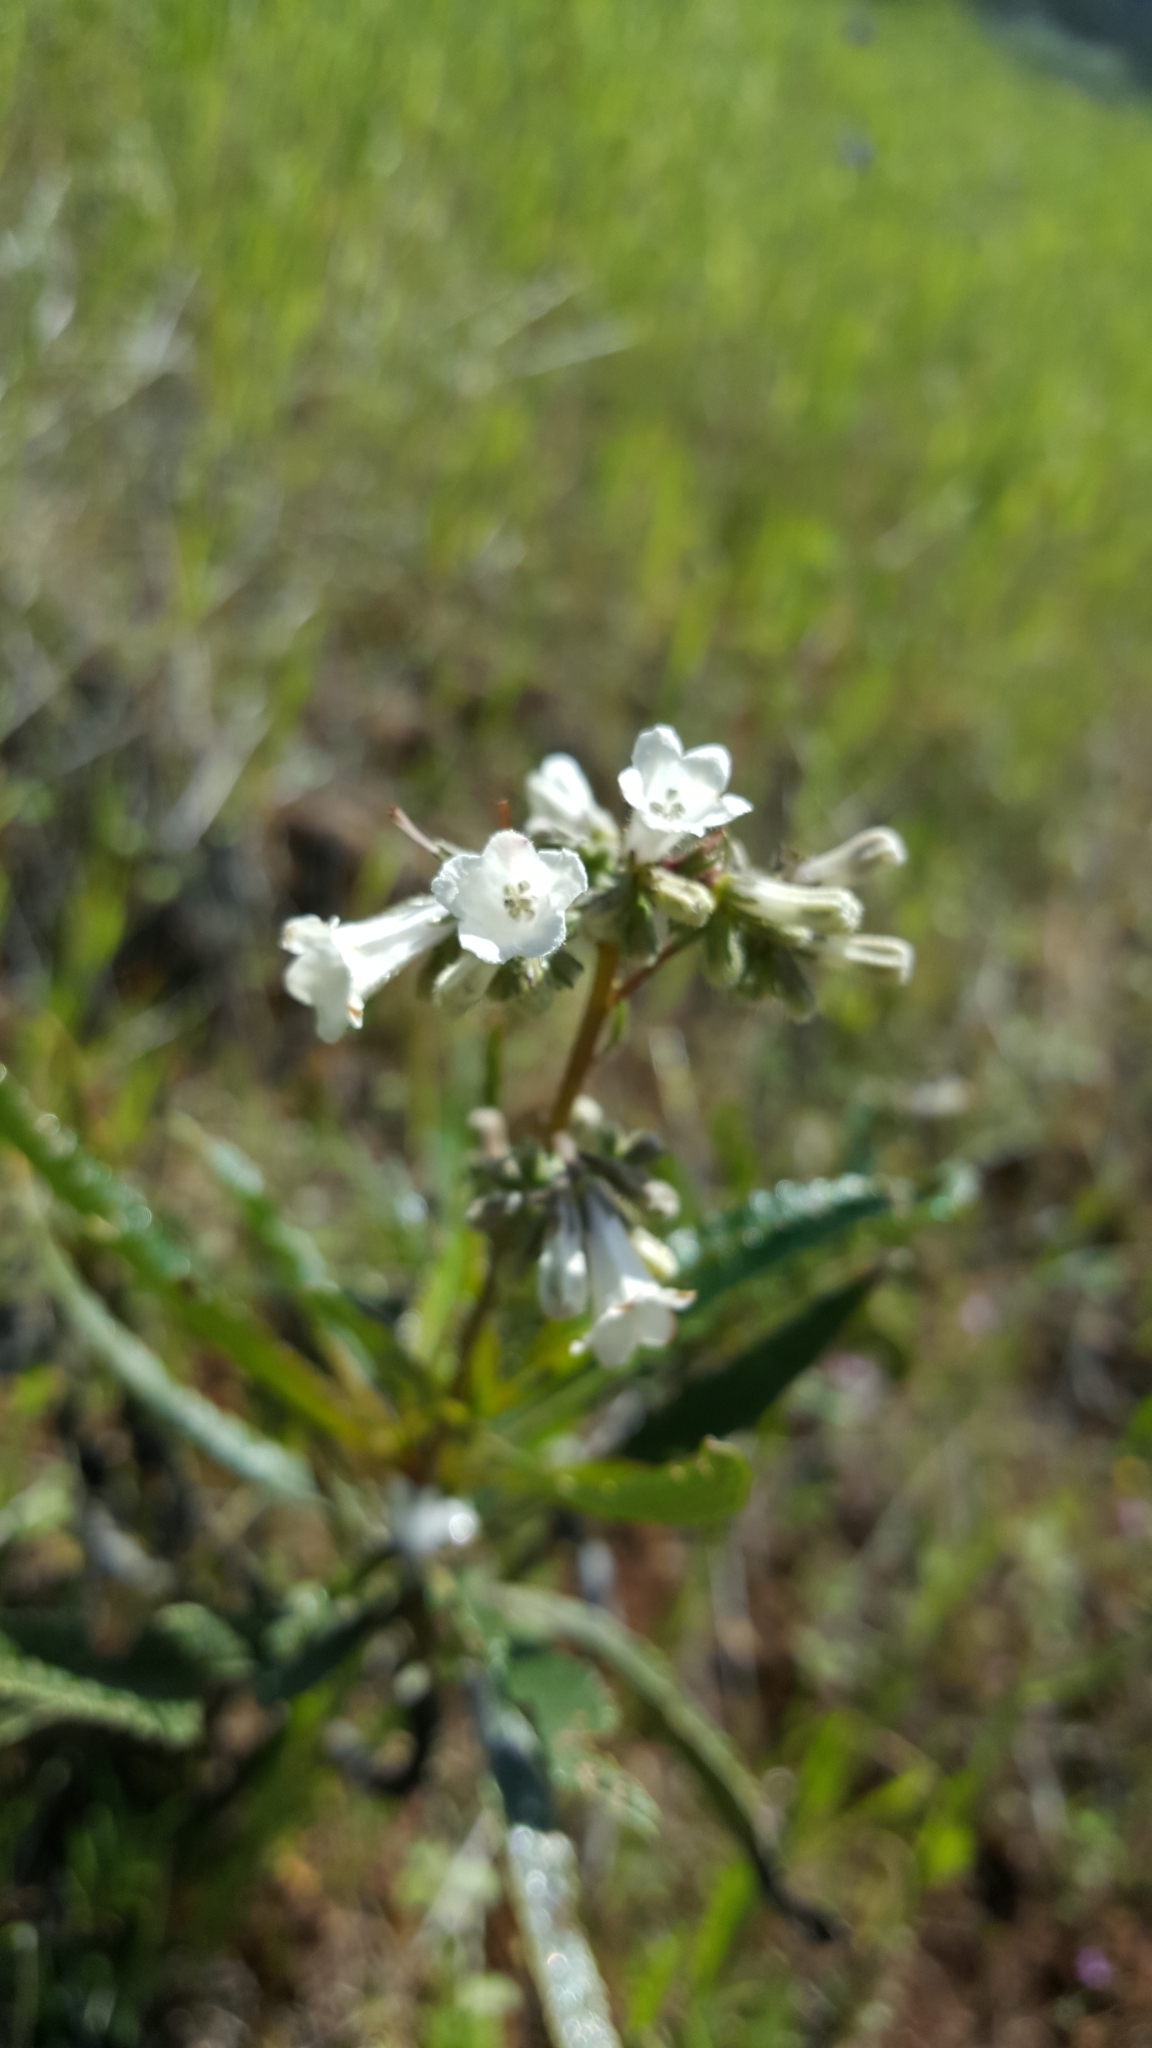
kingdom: Plantae
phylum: Tracheophyta
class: Magnoliopsida
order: Boraginales
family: Namaceae
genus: Eriodictyon
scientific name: Eriodictyon californicum
